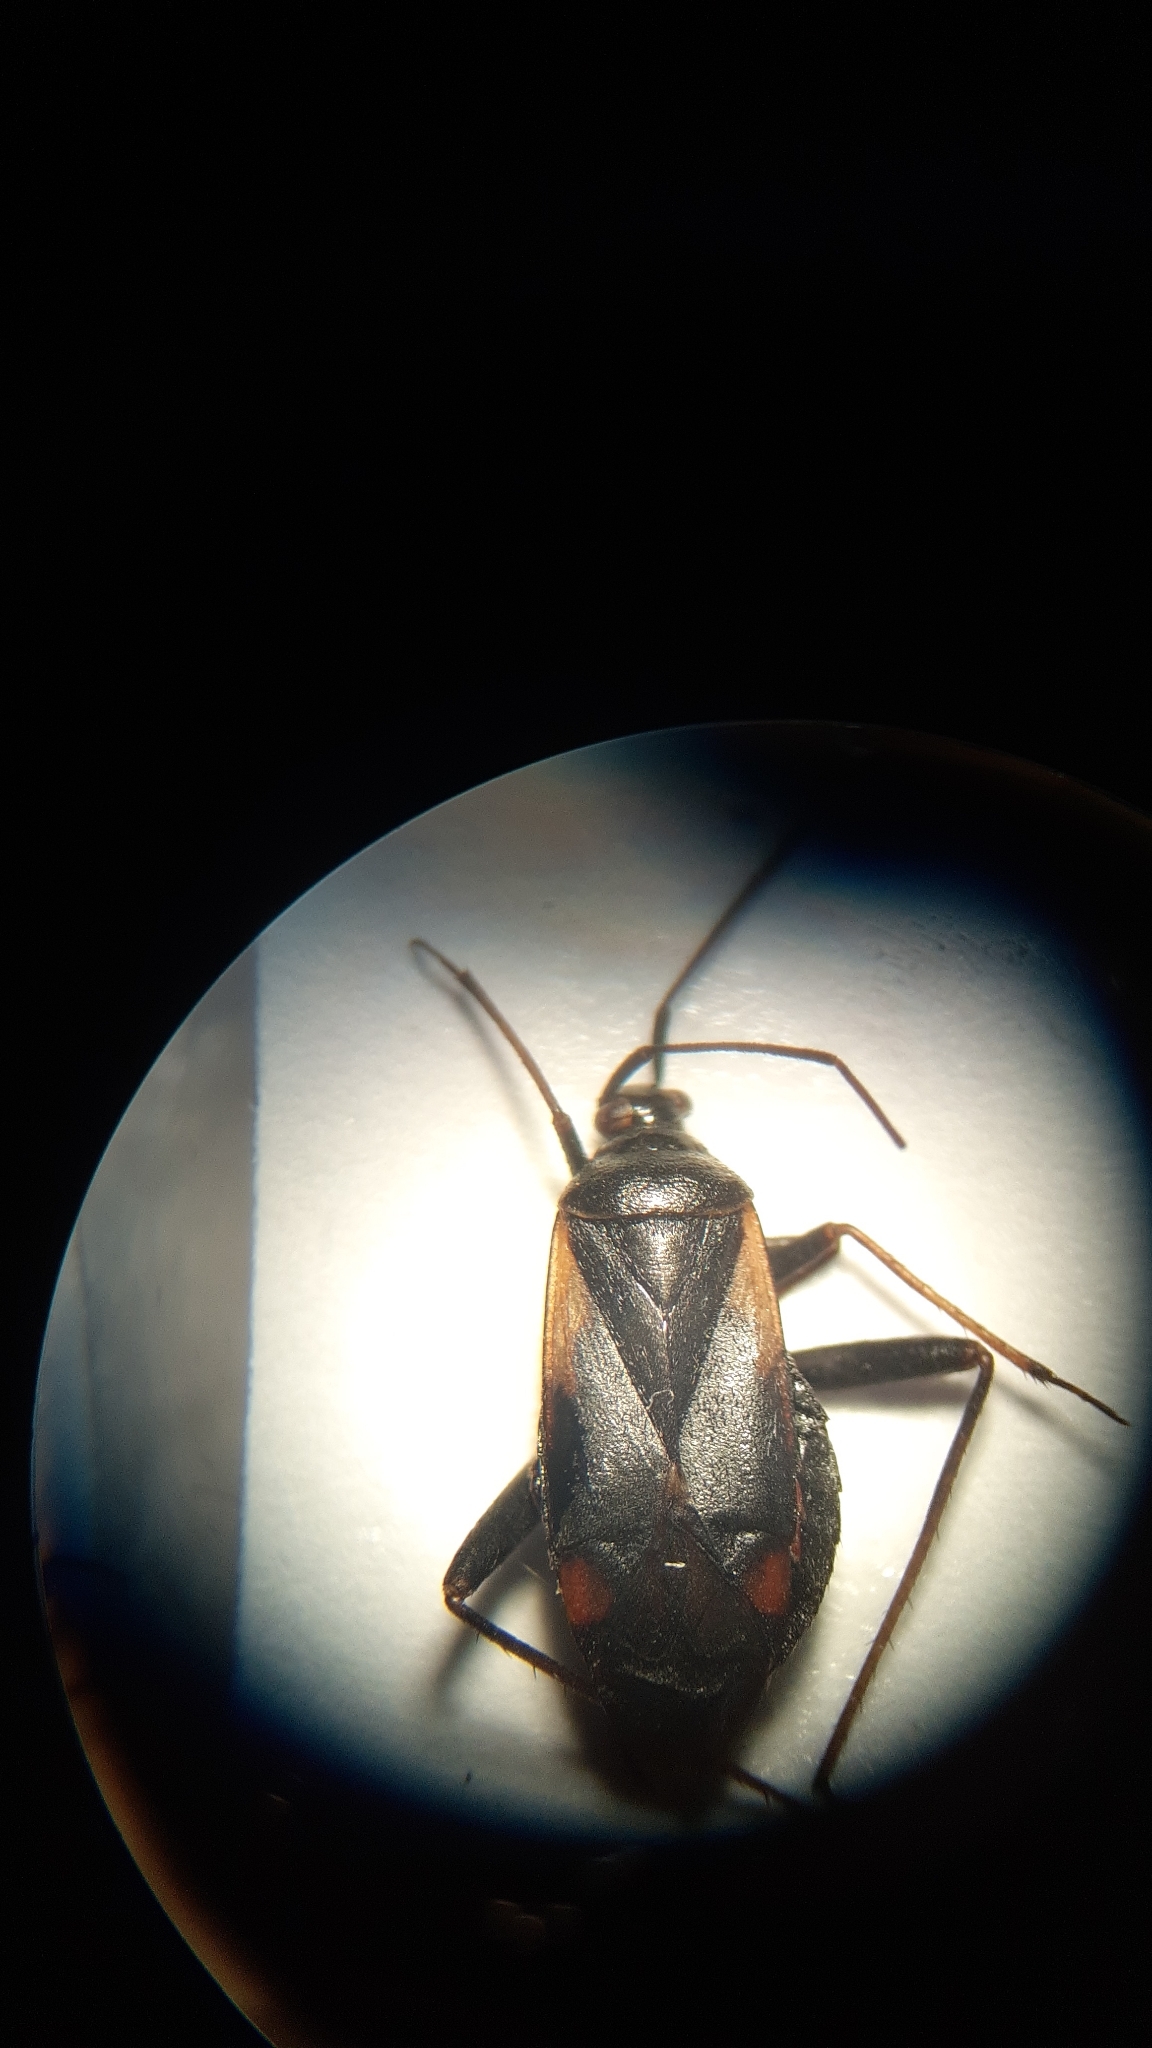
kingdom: Animalia
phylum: Arthropoda
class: Insecta
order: Hemiptera
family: Miridae
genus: Adelphocoris
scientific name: Adelphocoris seticornis
